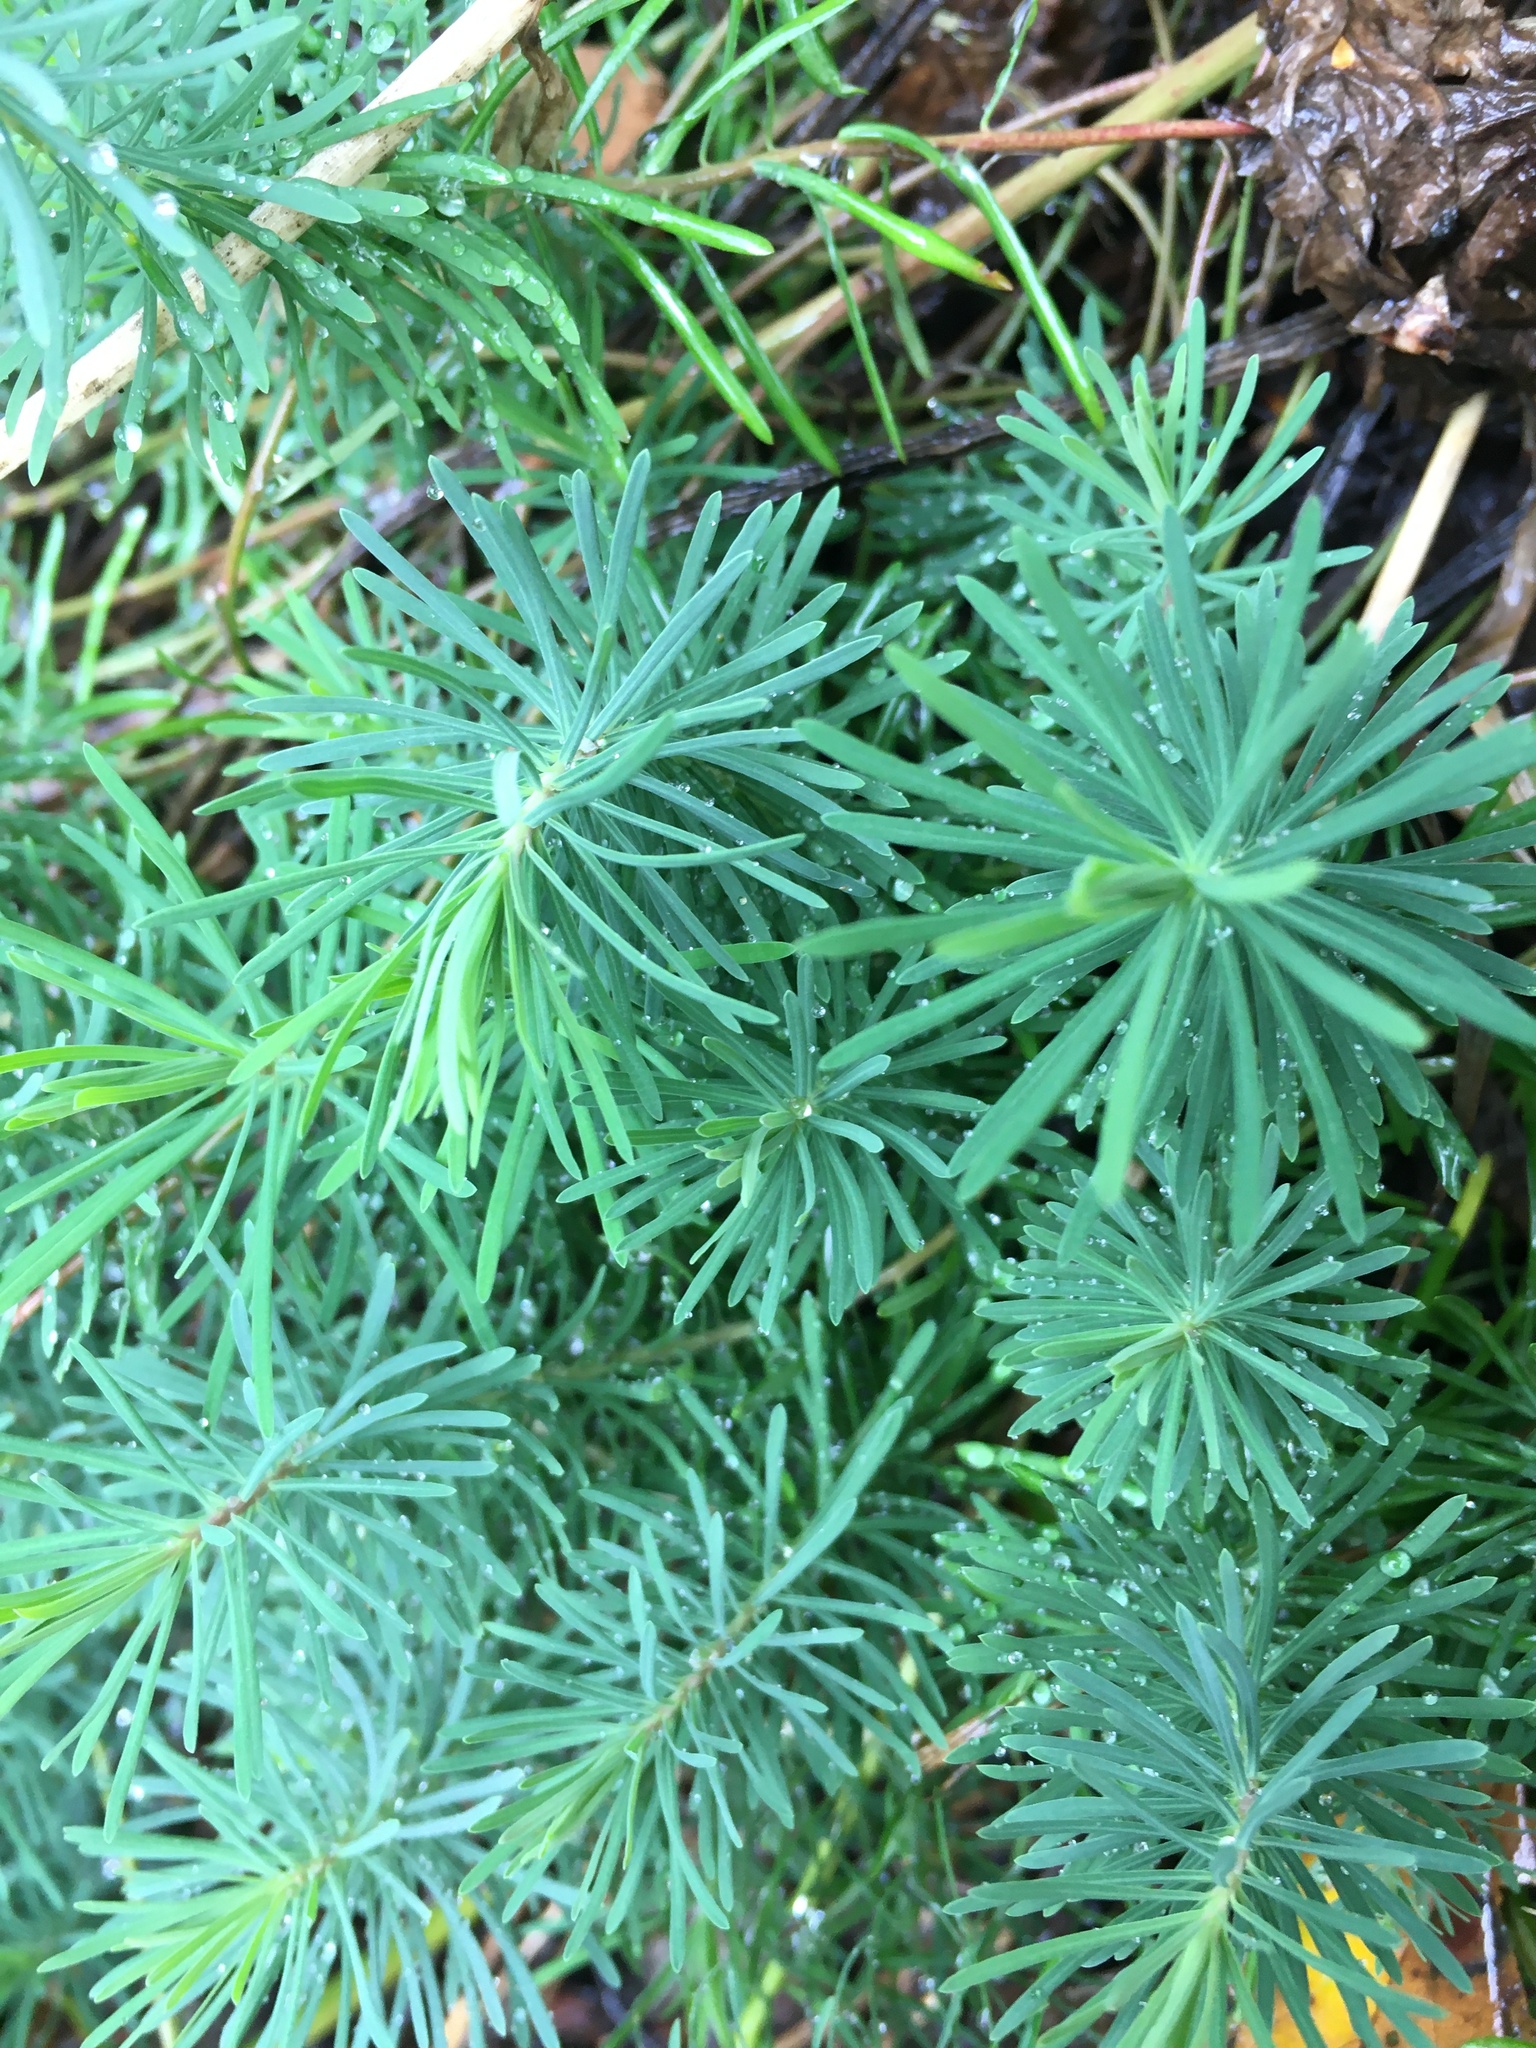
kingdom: Plantae
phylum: Tracheophyta
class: Magnoliopsida
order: Malpighiales
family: Euphorbiaceae
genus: Euphorbia
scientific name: Euphorbia cyparissias
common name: Cypress spurge
